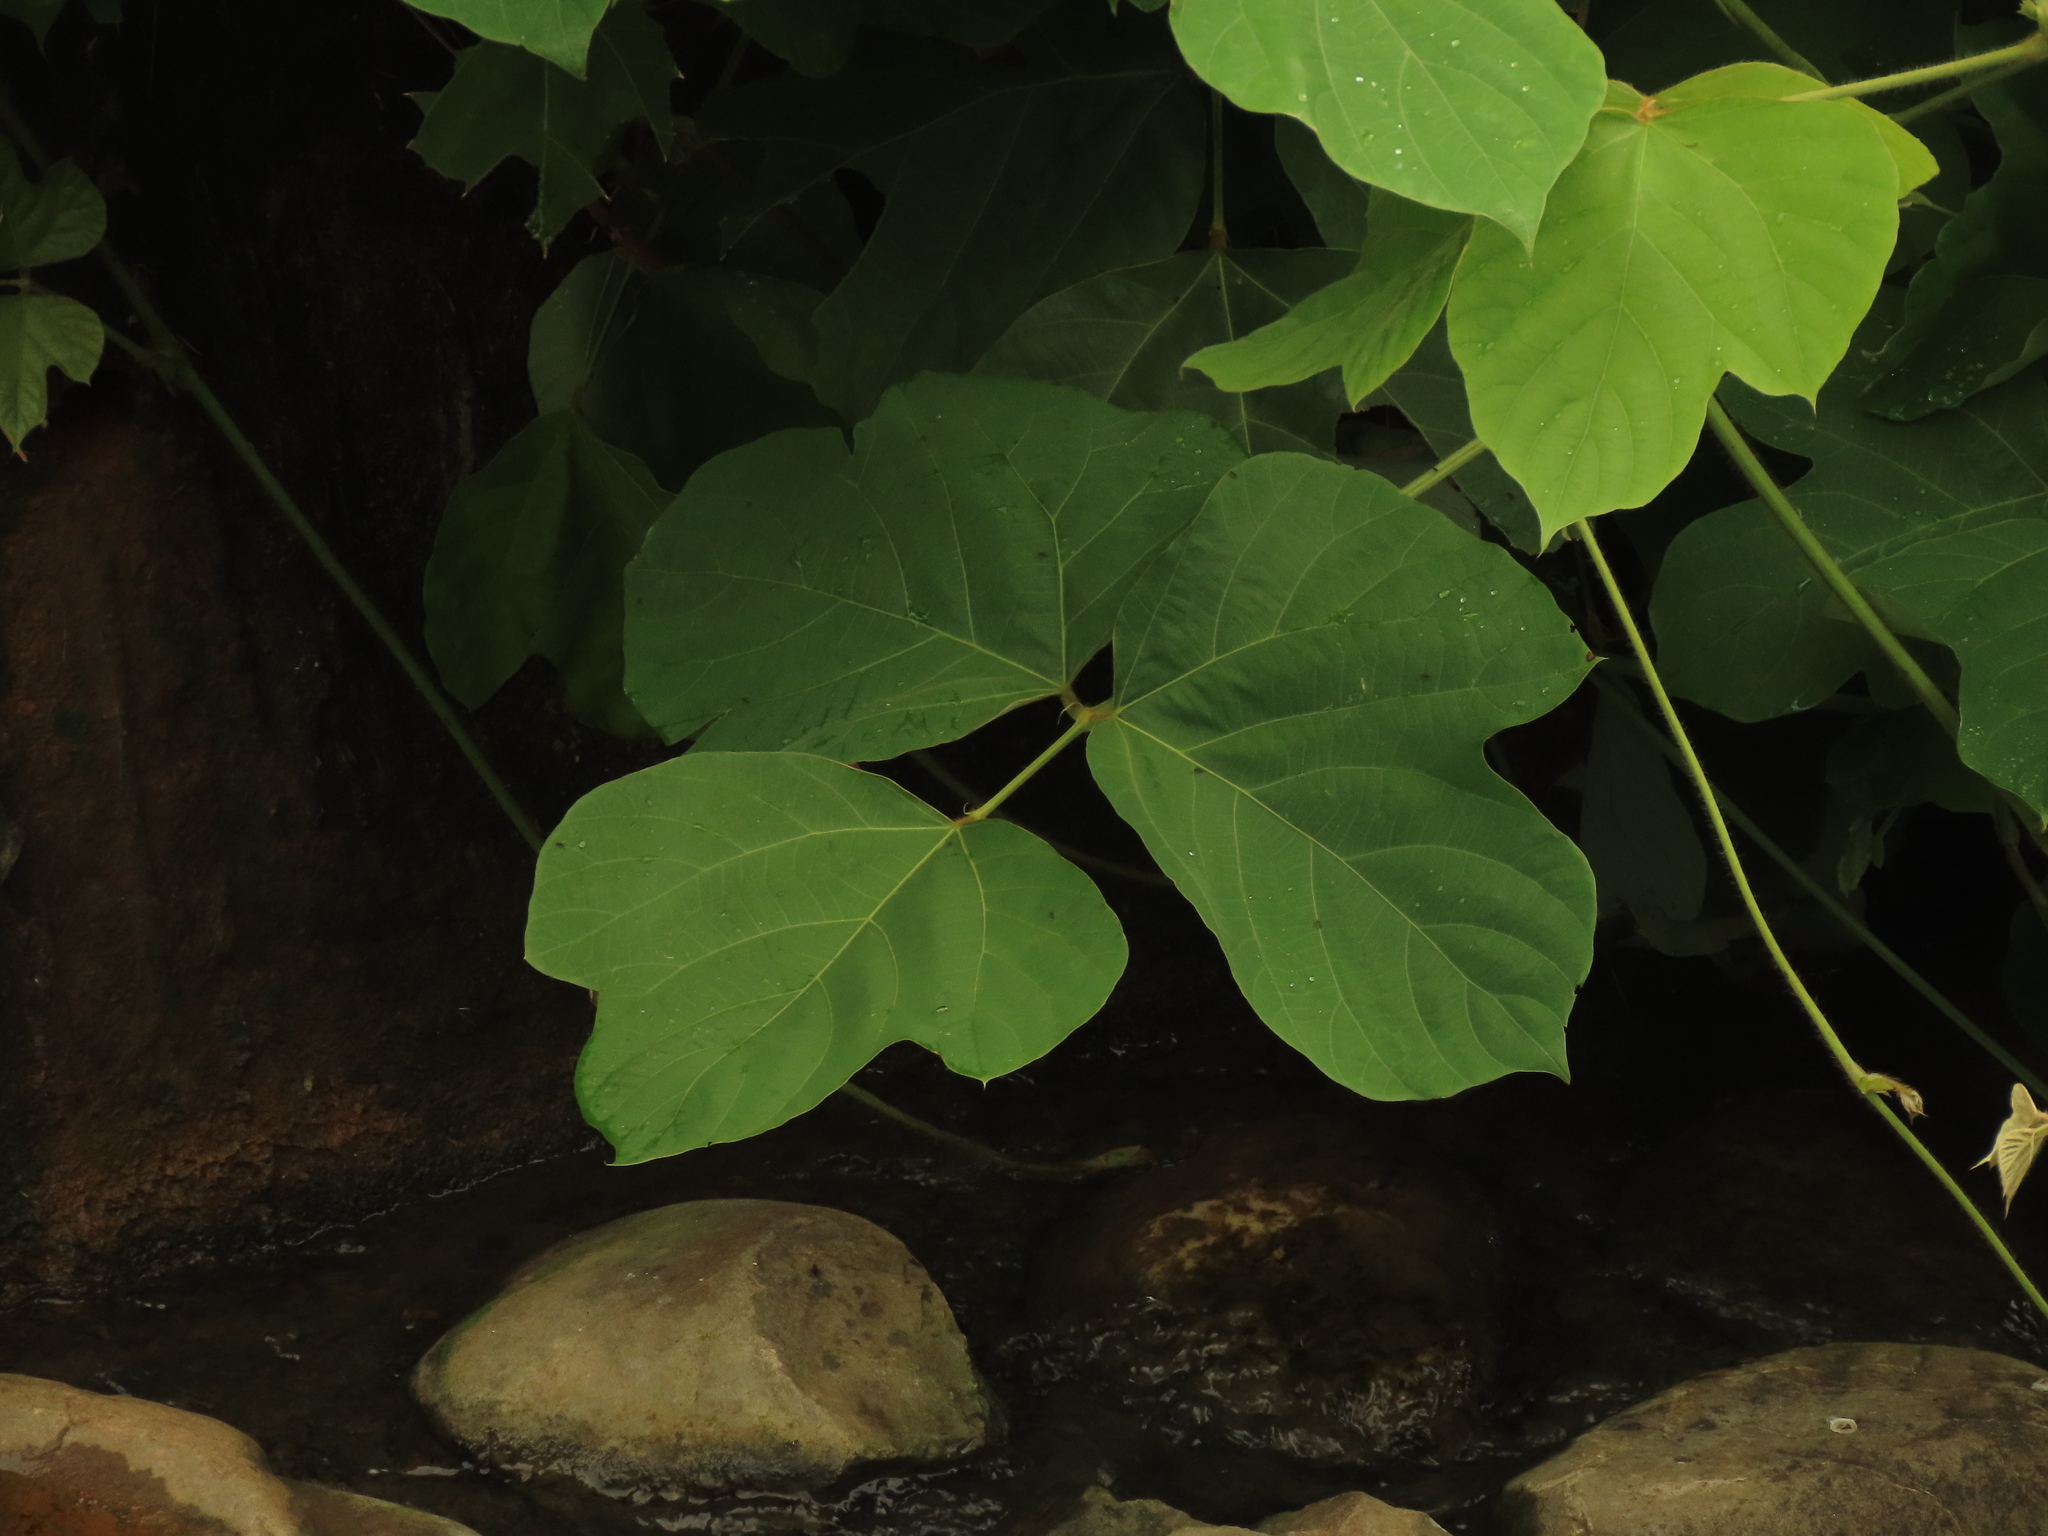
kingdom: Plantae
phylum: Tracheophyta
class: Magnoliopsida
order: Fabales
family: Fabaceae
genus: Pueraria
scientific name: Pueraria montana
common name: Kudzu
